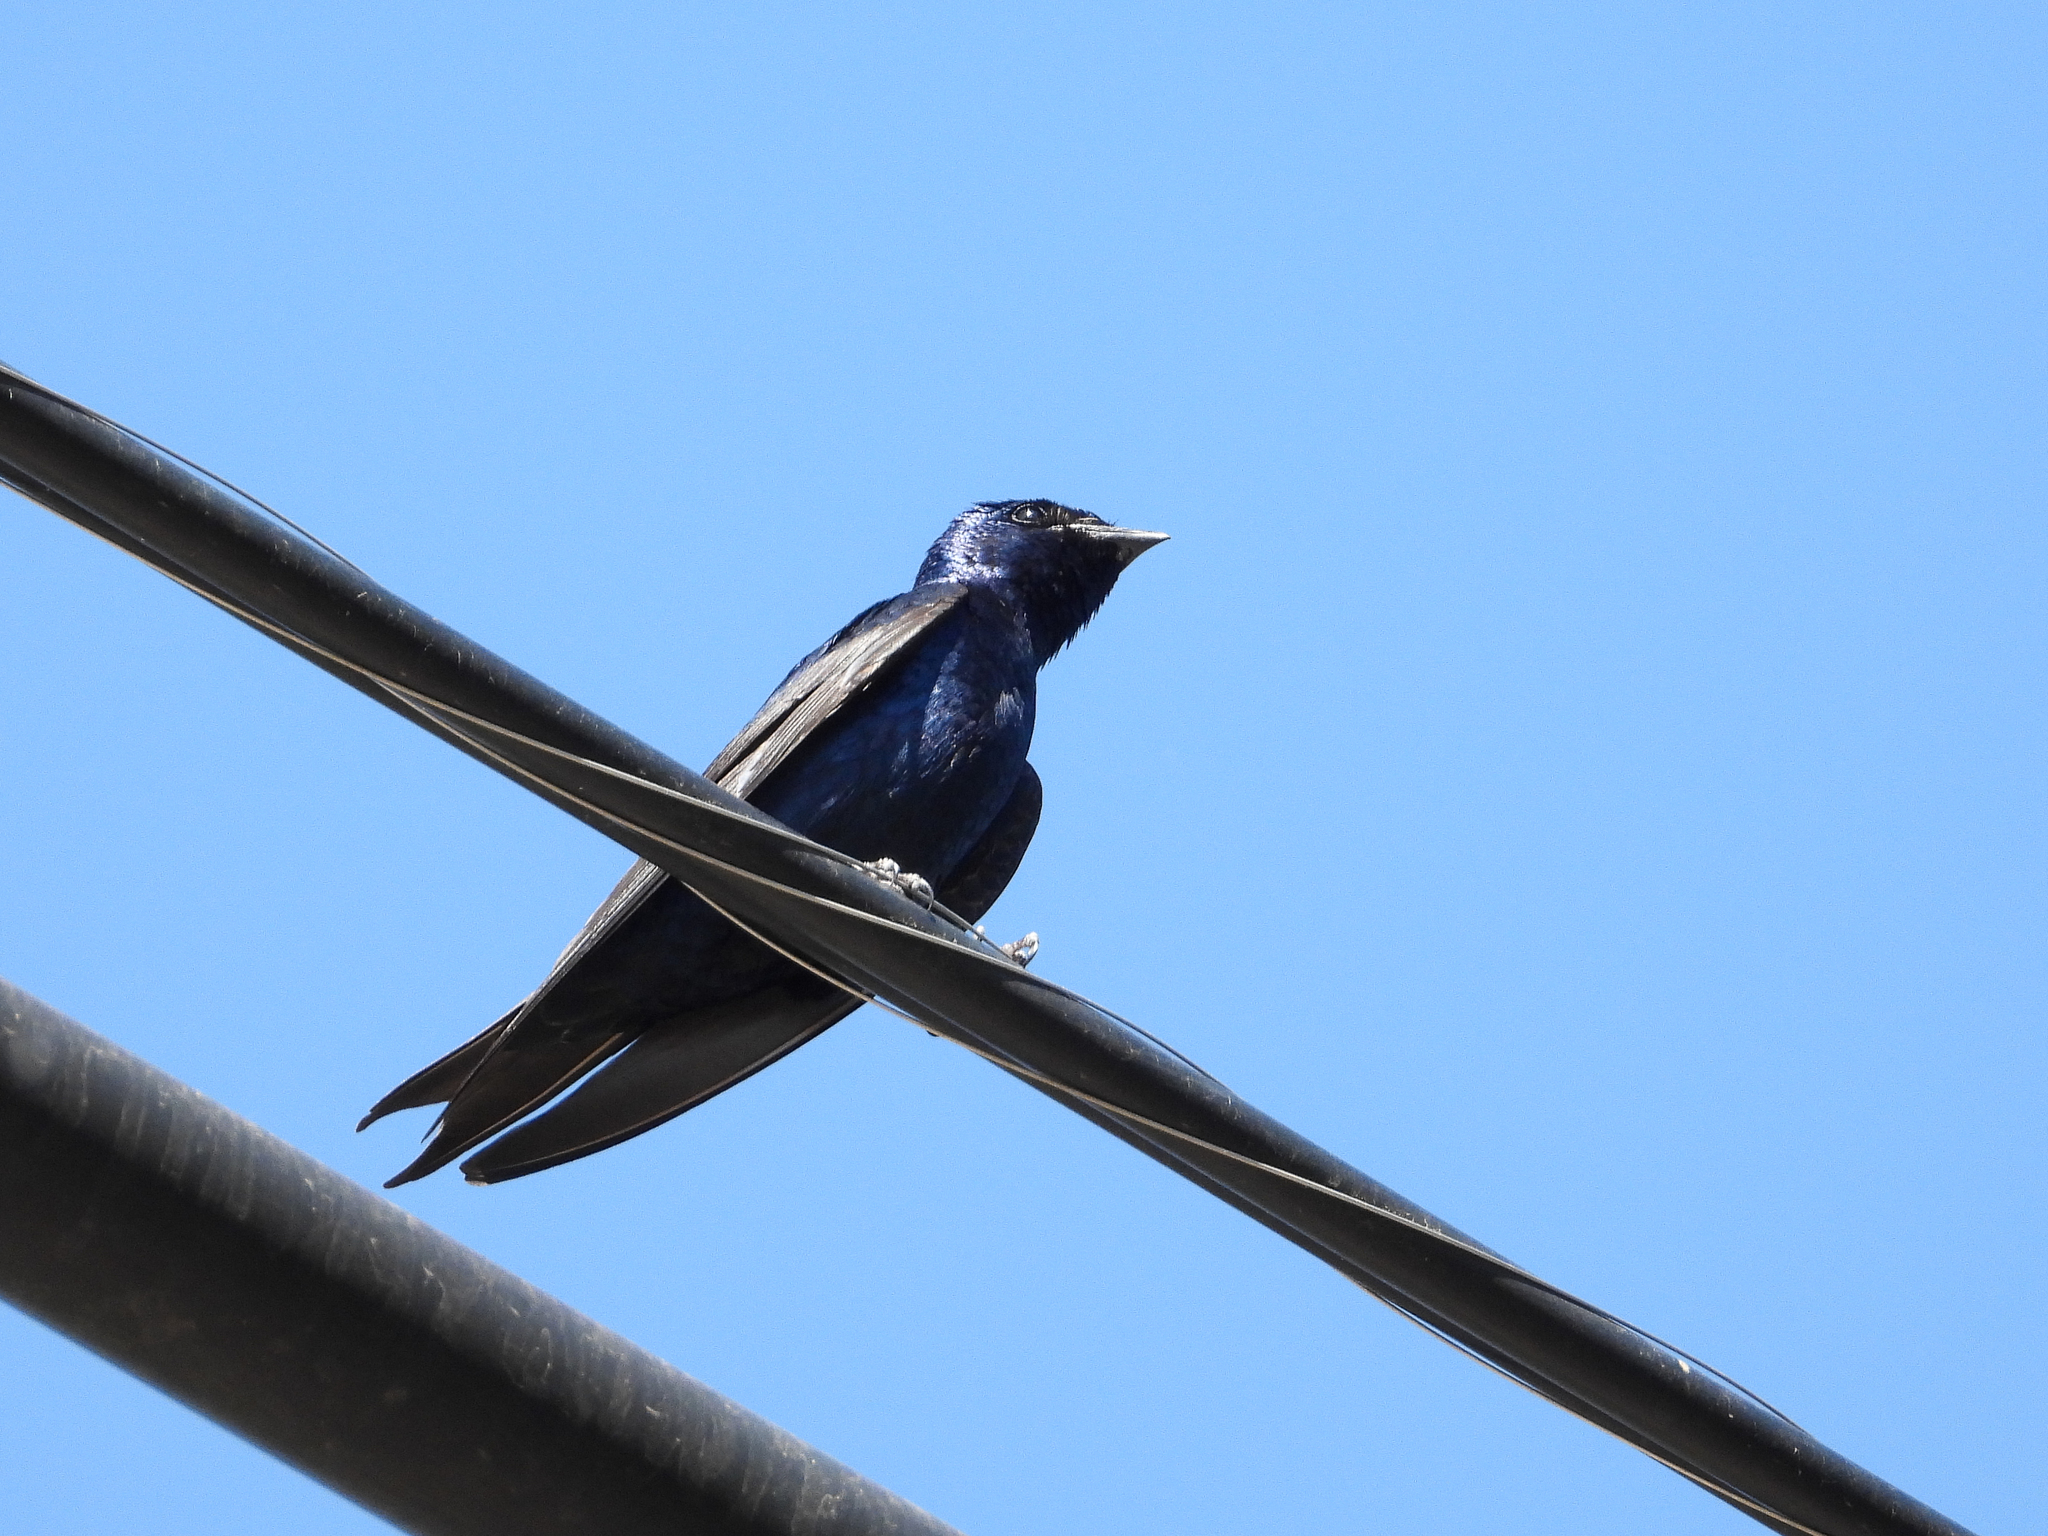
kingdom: Animalia
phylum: Chordata
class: Aves
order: Passeriformes
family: Hirundinidae
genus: Progne
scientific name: Progne subis
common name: Purple martin
